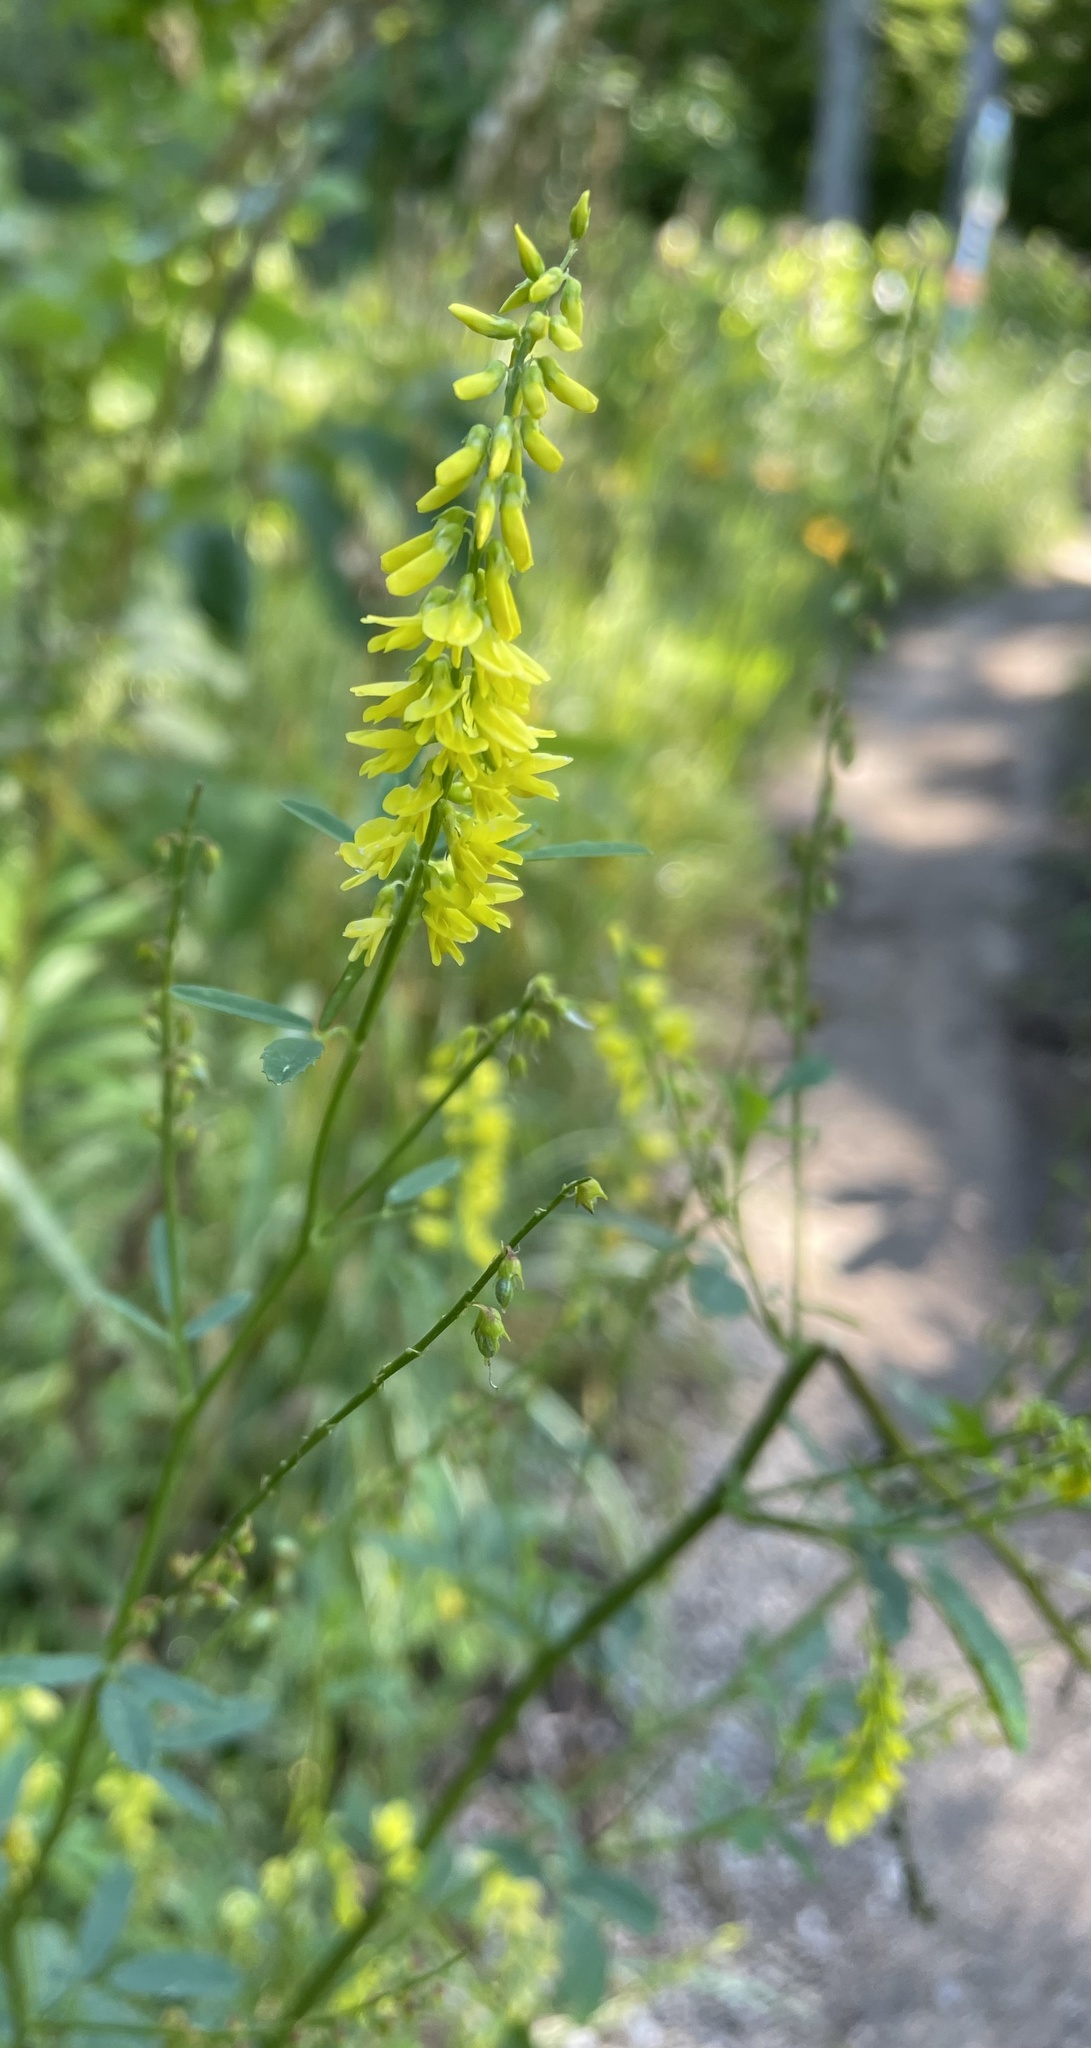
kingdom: Plantae
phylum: Tracheophyta
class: Magnoliopsida
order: Fabales
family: Fabaceae
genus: Melilotus
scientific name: Melilotus officinalis
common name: Sweetclover
